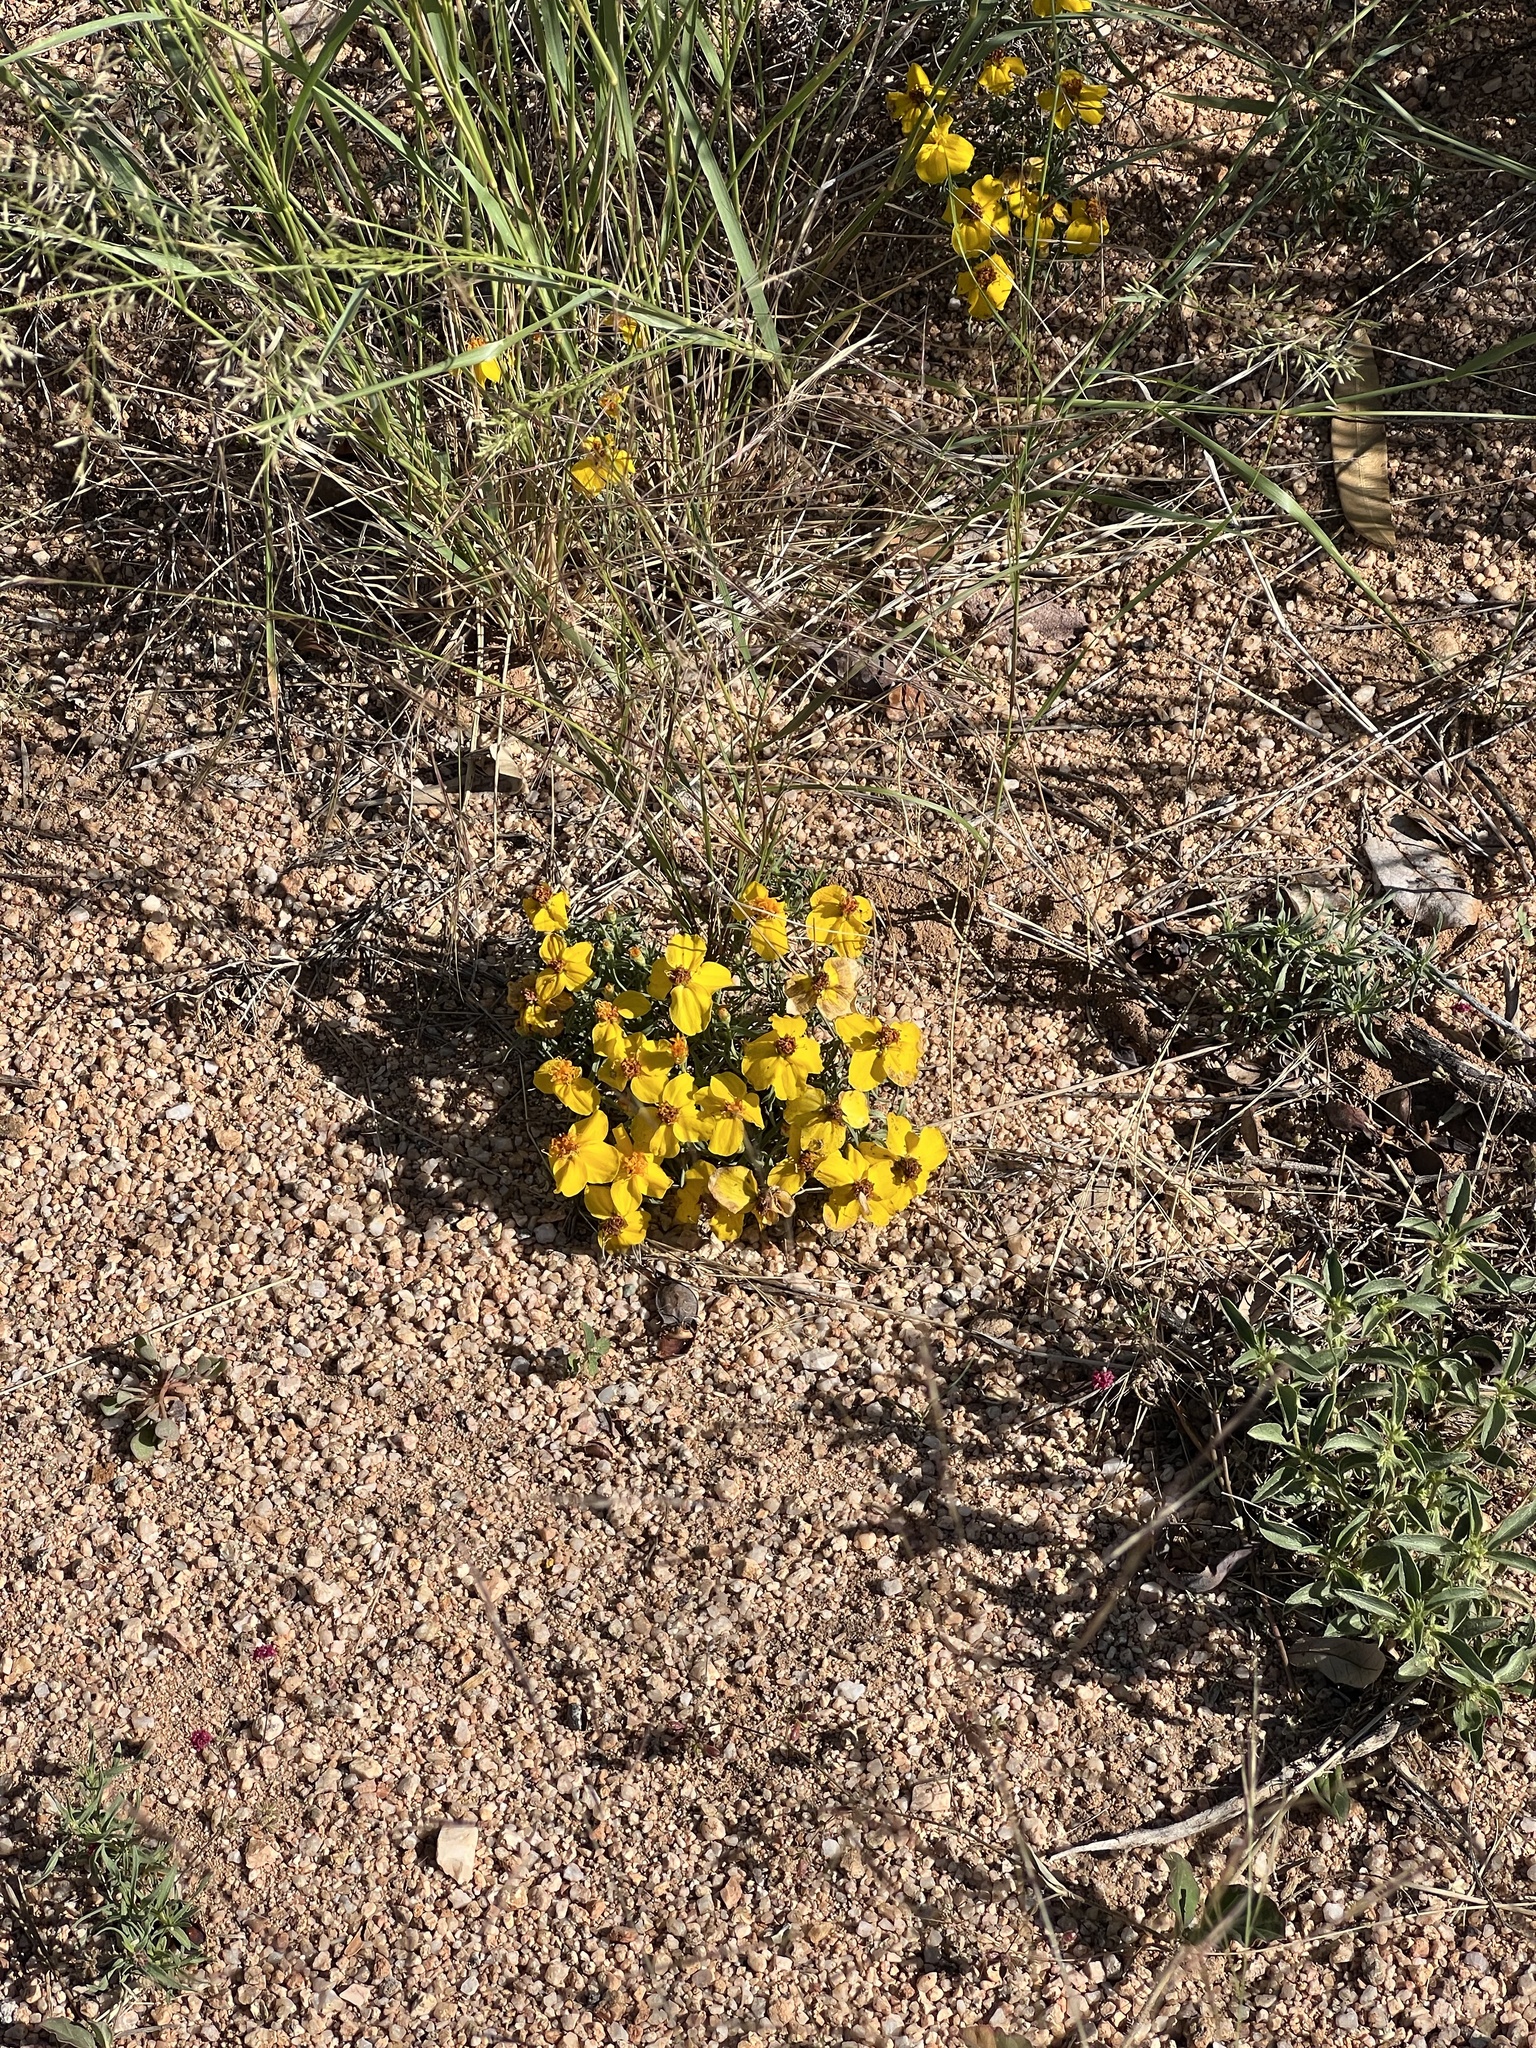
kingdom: Plantae
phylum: Tracheophyta
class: Magnoliopsida
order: Asterales
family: Asteraceae
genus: Zinnia
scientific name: Zinnia grandiflora
